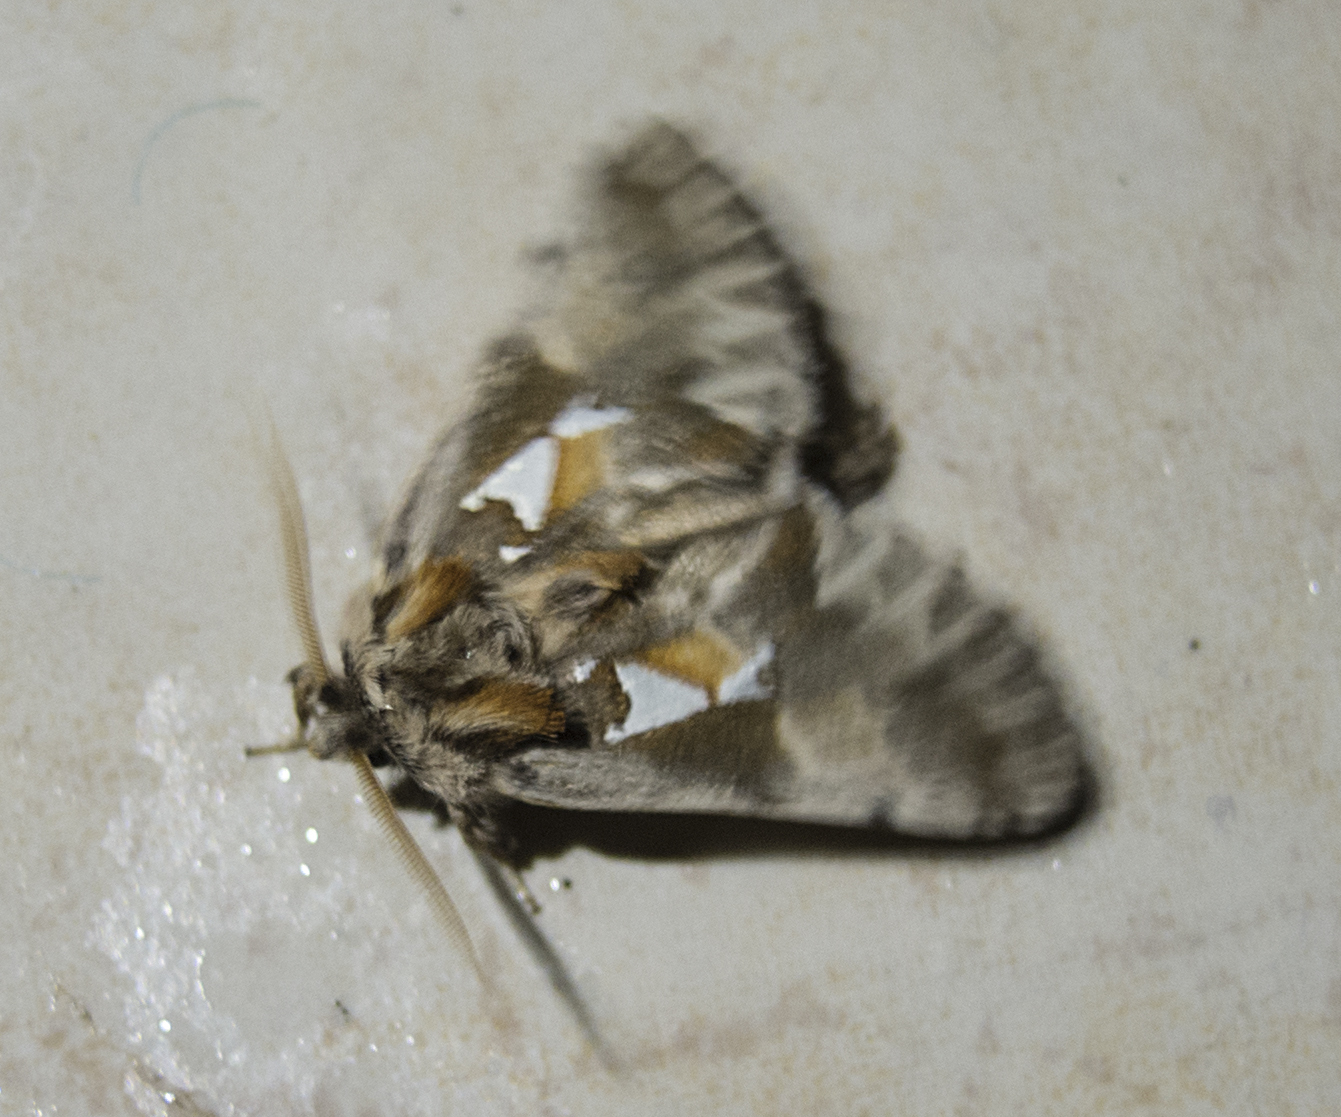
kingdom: Animalia
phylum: Arthropoda
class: Insecta
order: Lepidoptera
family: Notodontidae
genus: Spatalia
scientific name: Spatalia argentina
